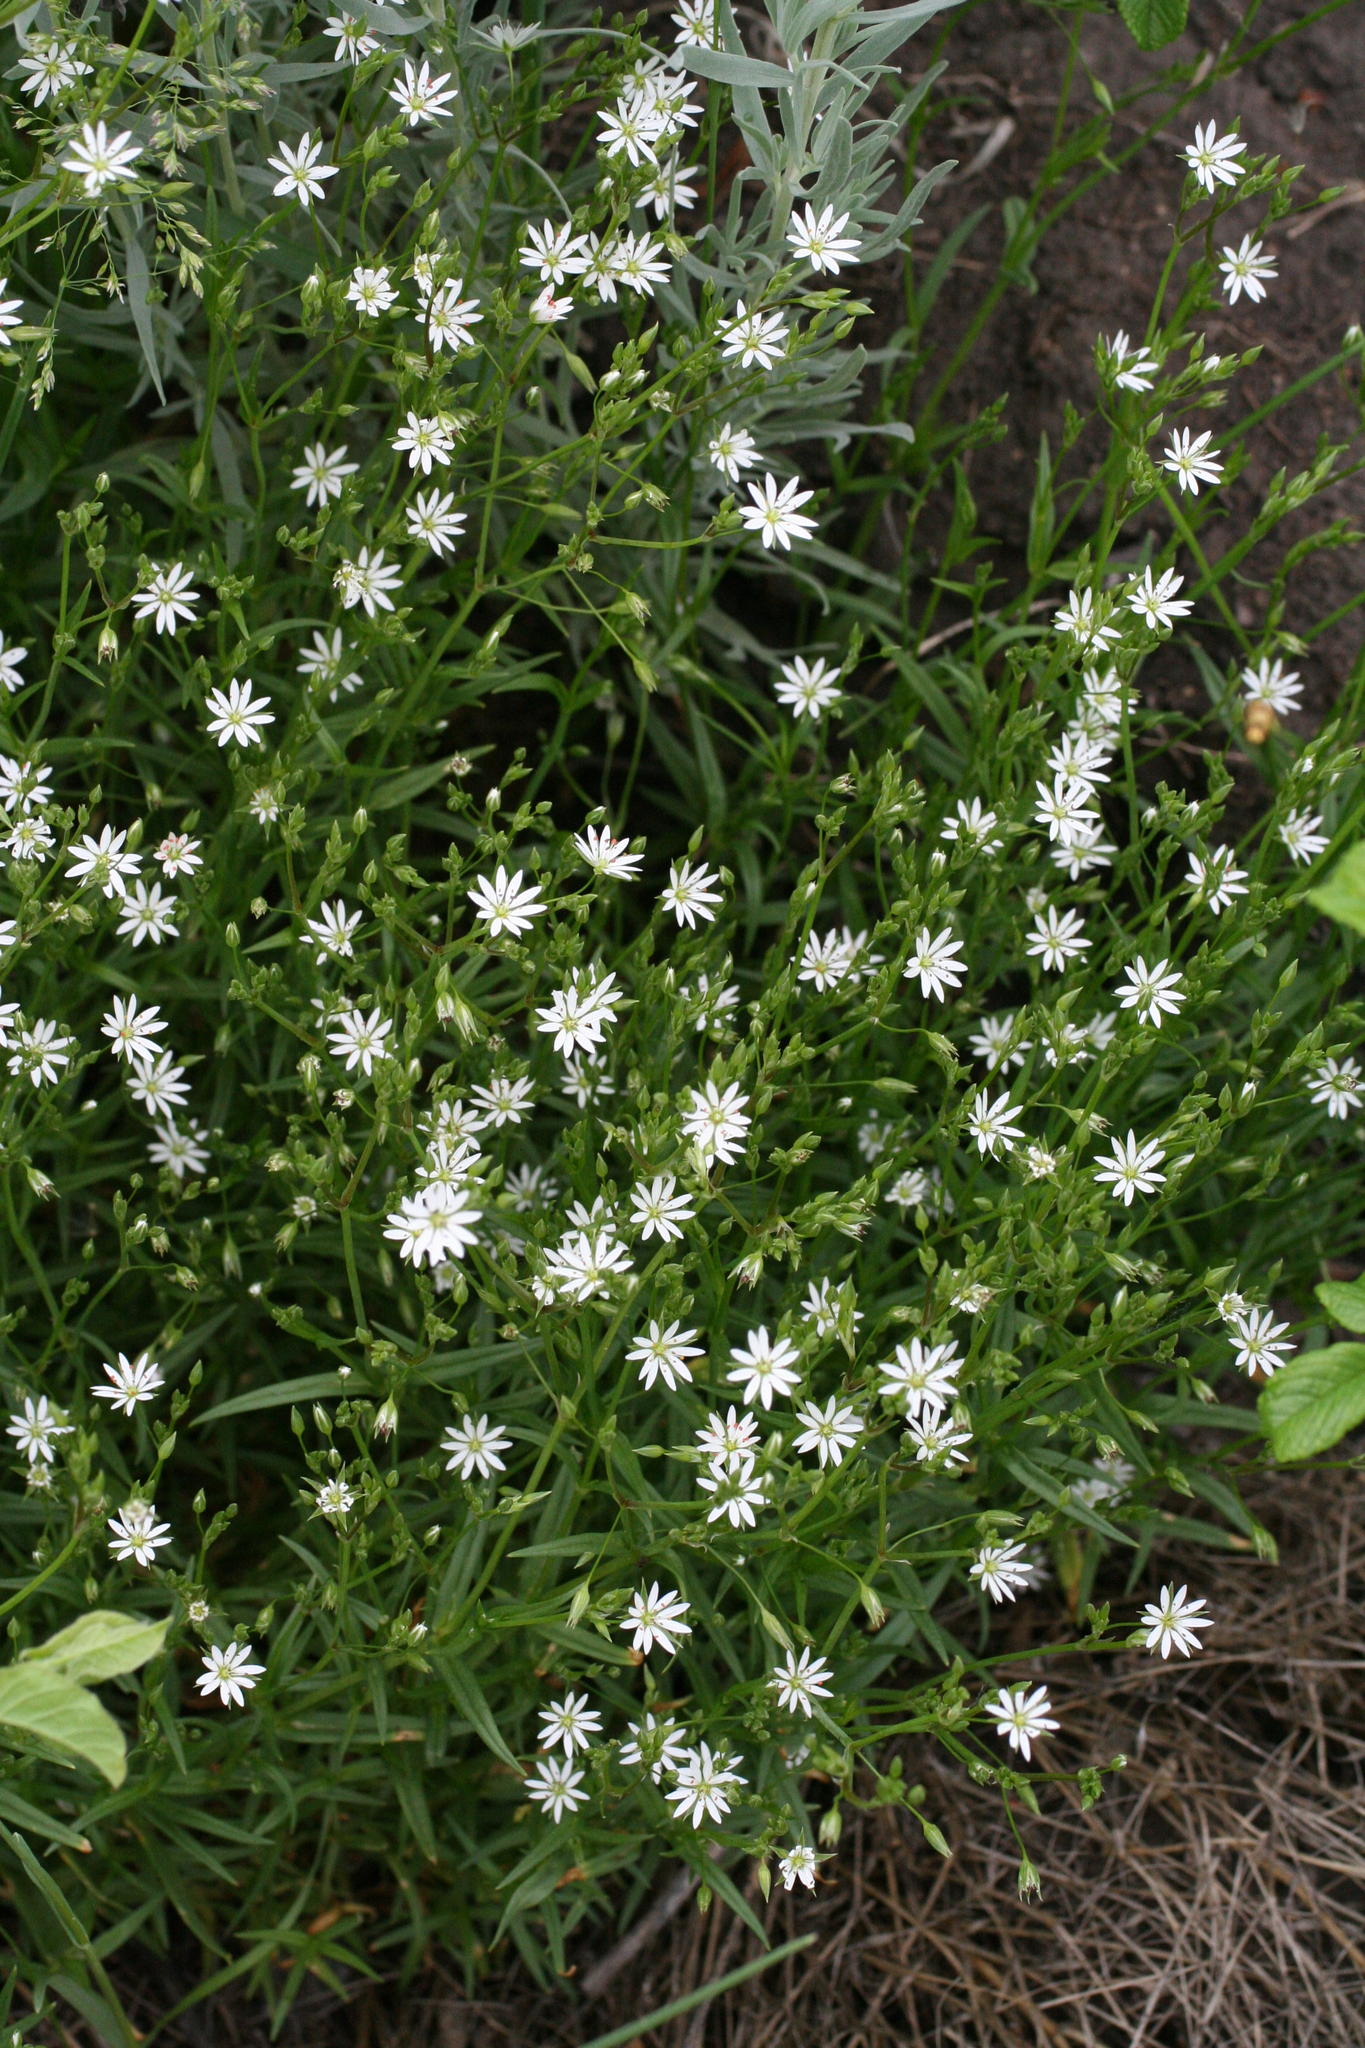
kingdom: Plantae
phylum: Tracheophyta
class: Magnoliopsida
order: Caryophyllales
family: Caryophyllaceae
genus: Stellaria
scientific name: Stellaria graminea
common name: Grass-like starwort
